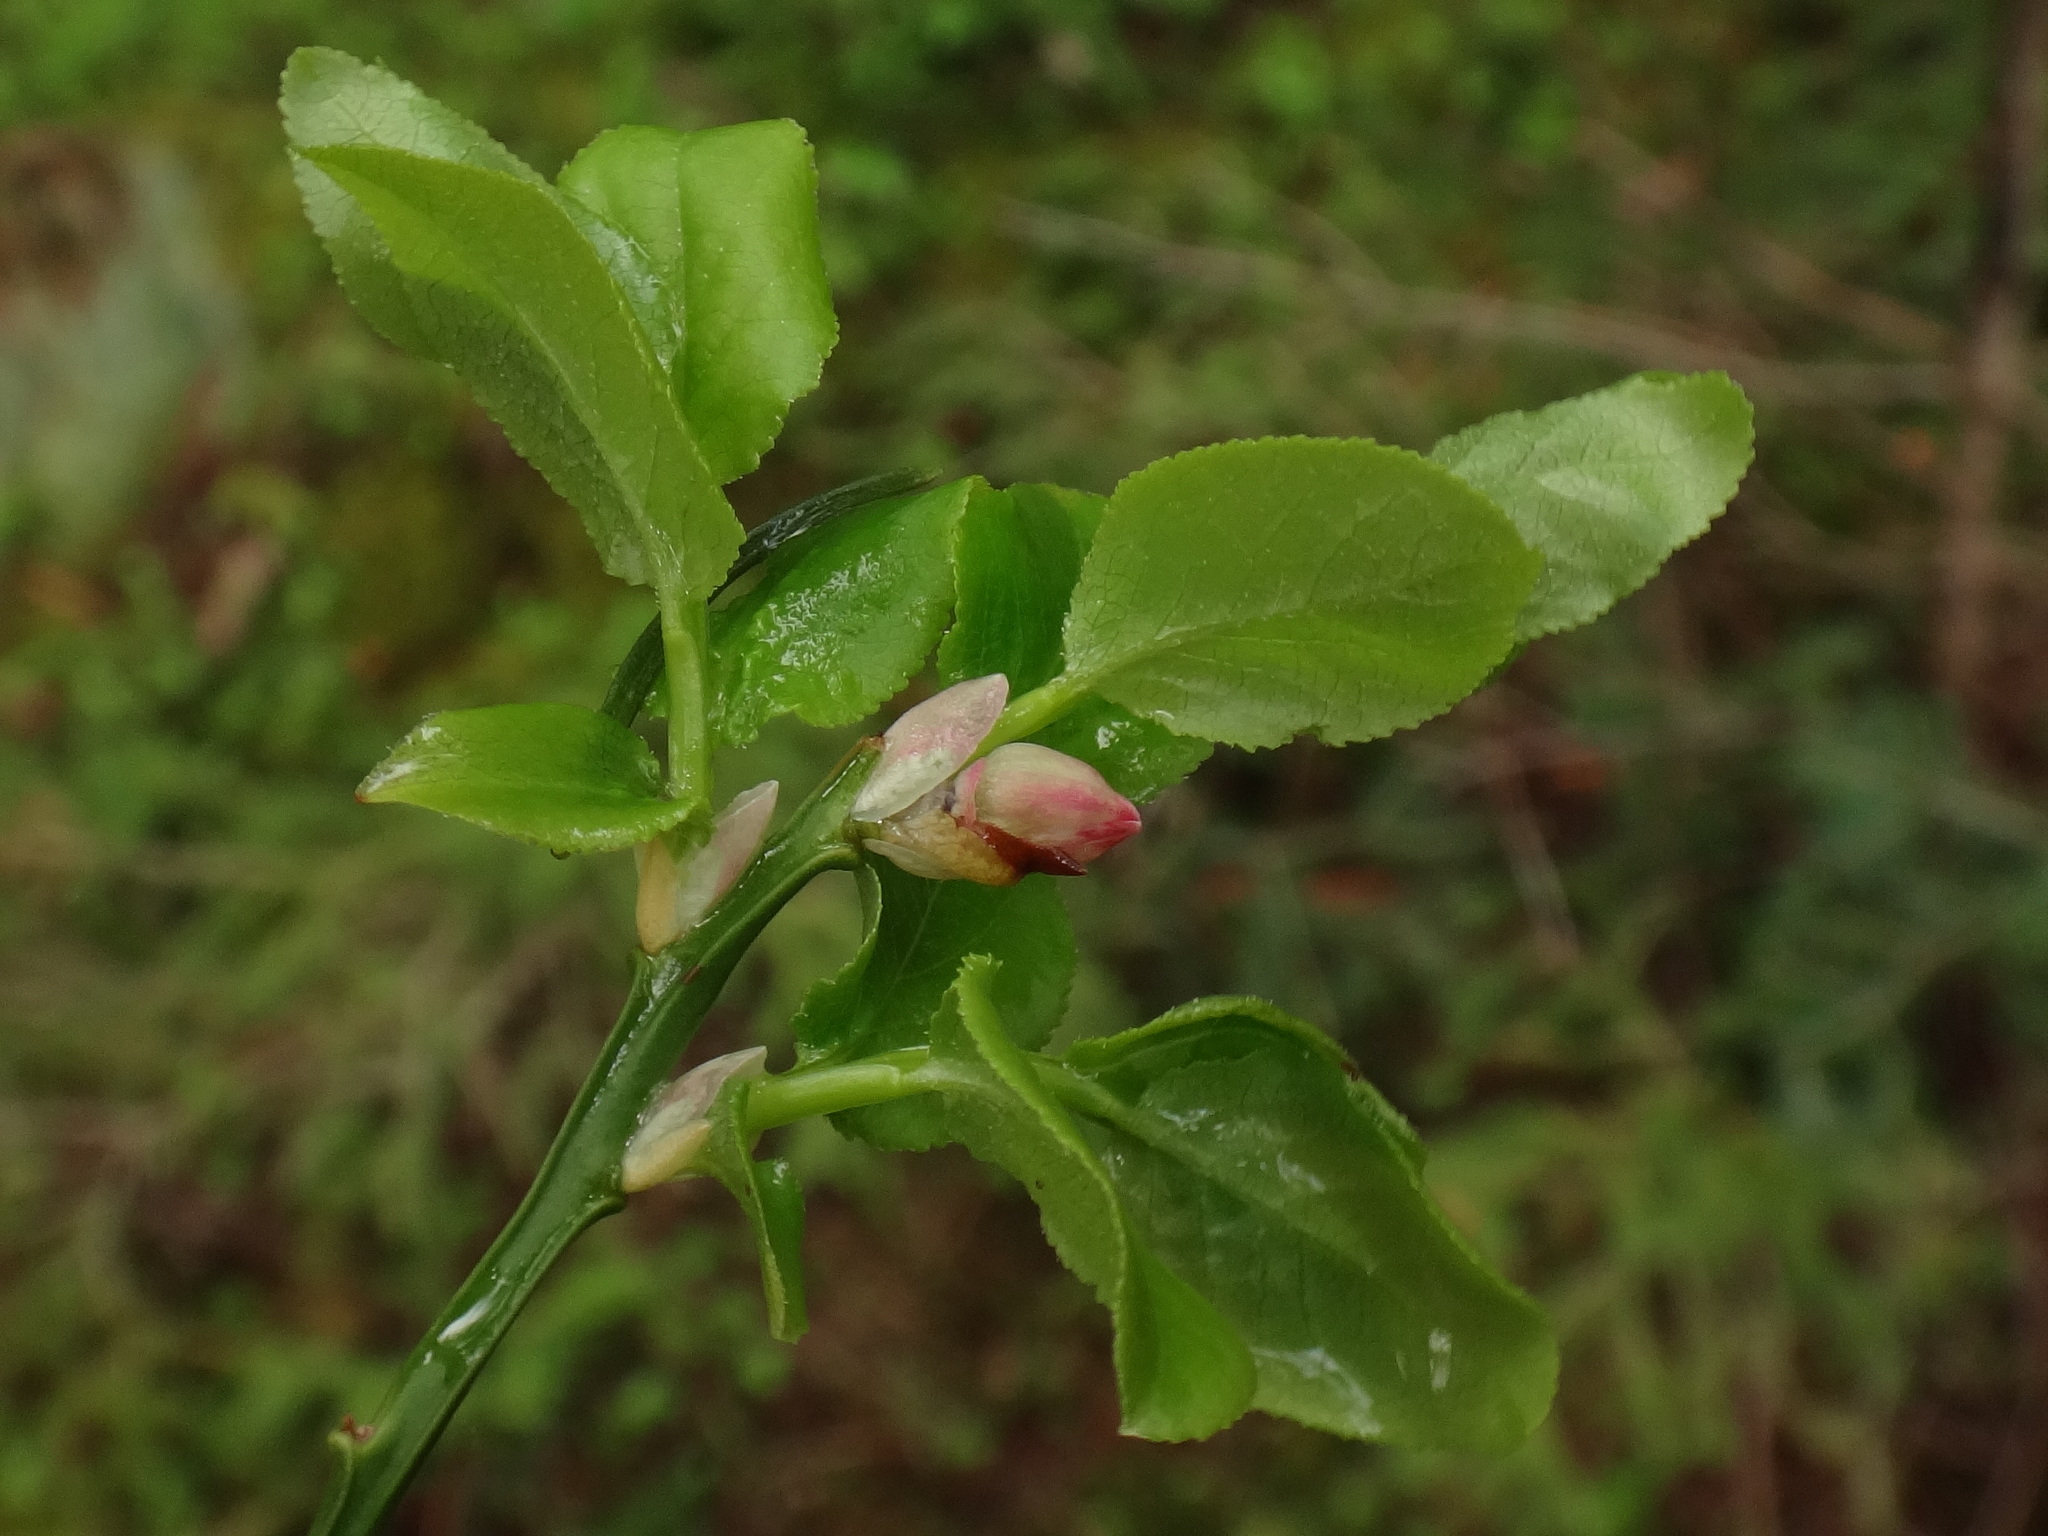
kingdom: Plantae
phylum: Tracheophyta
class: Magnoliopsida
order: Ericales
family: Ericaceae
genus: Vaccinium
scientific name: Vaccinium myrtillus
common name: Bilberry
